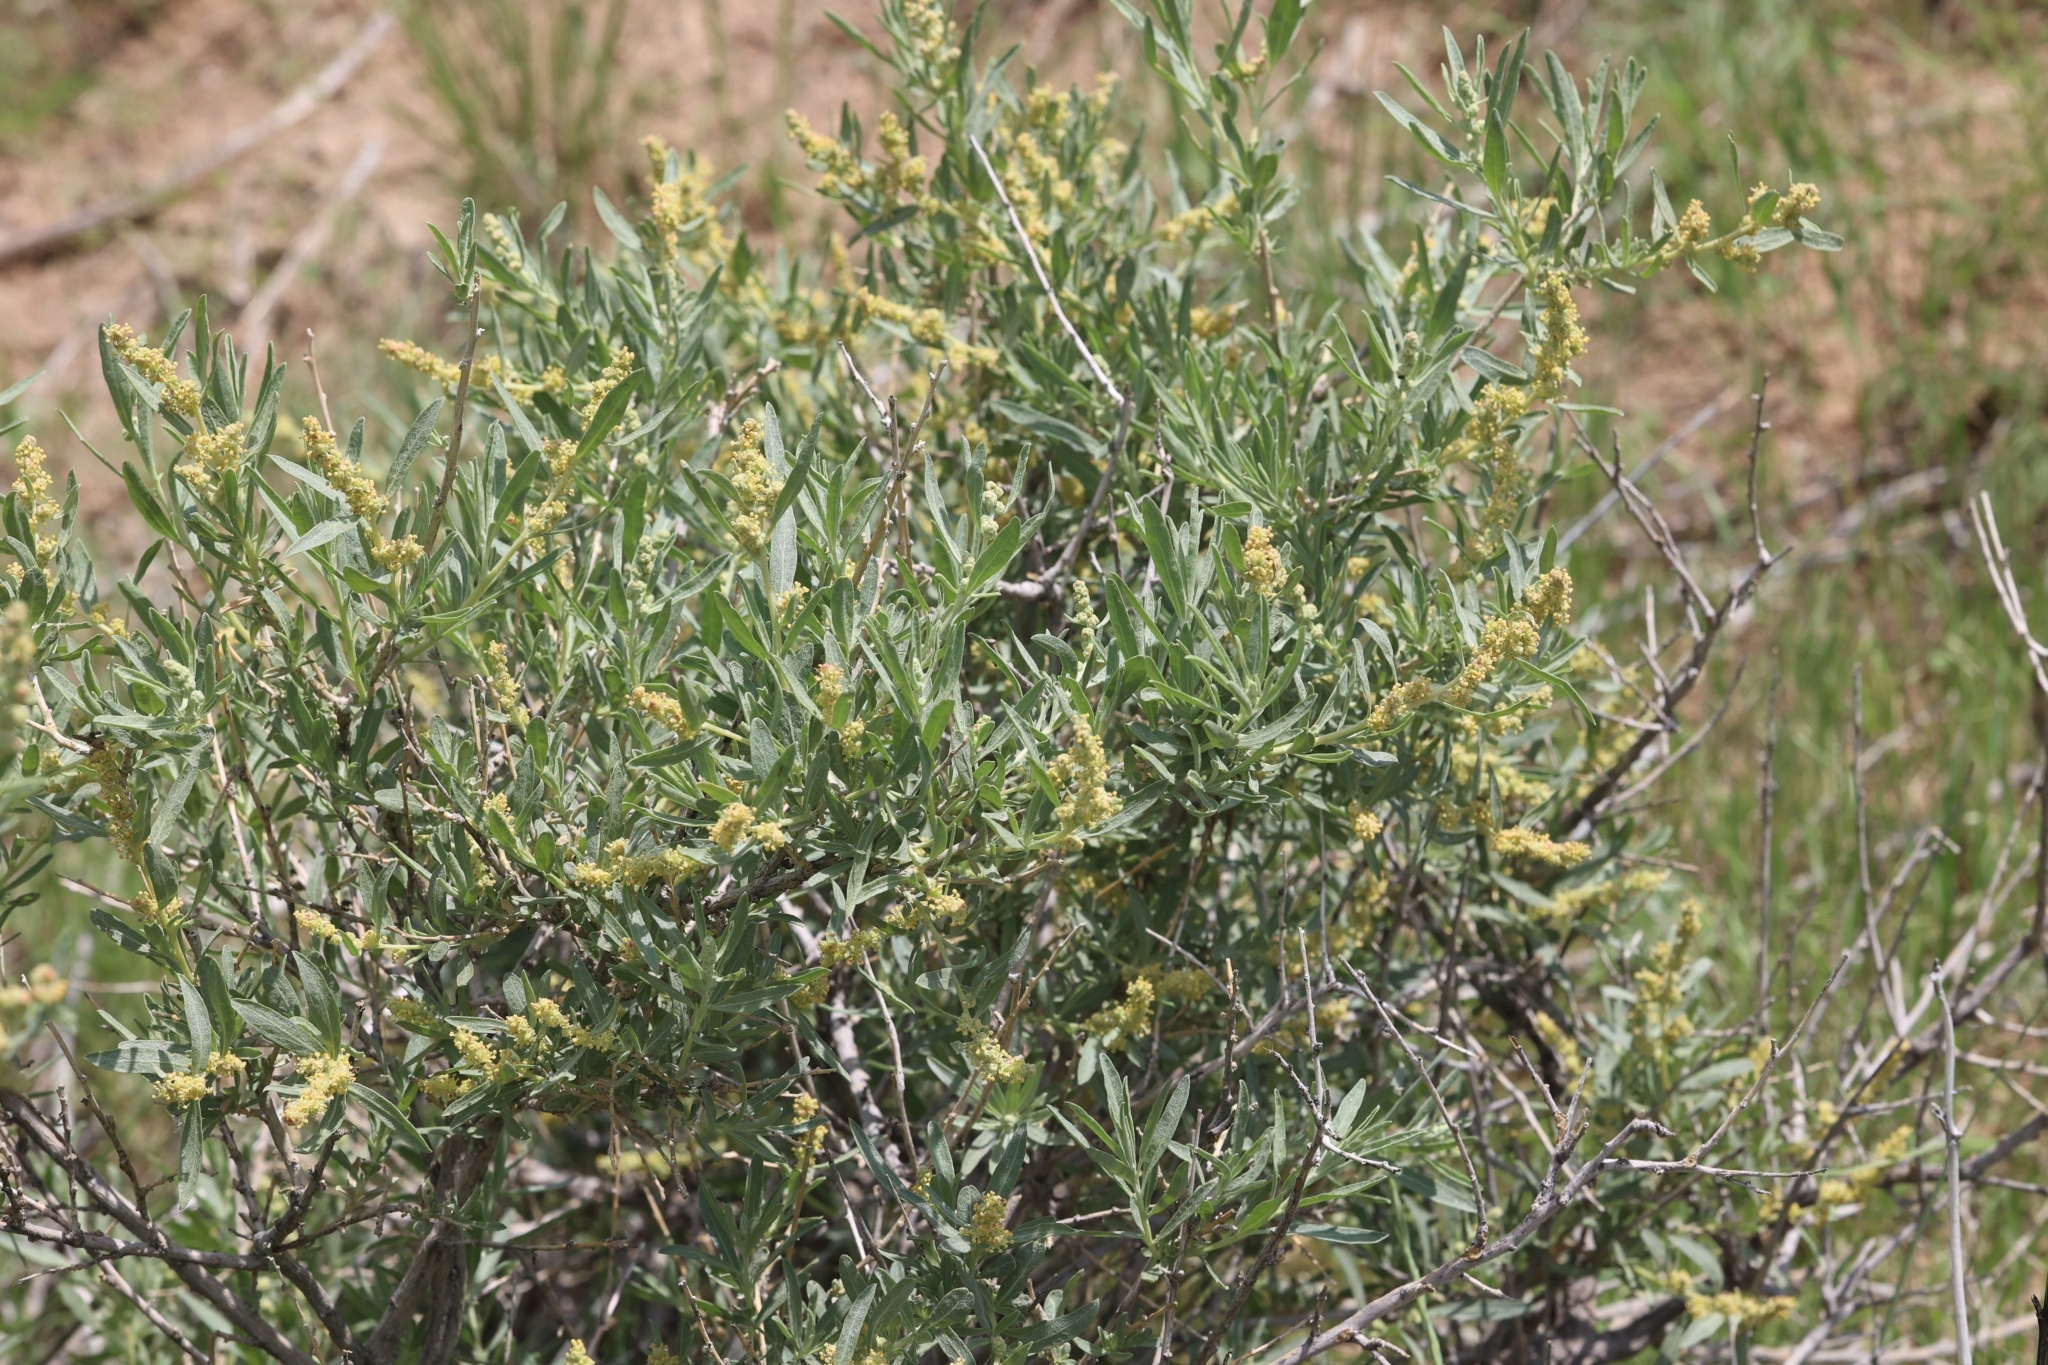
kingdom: Plantae
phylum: Tracheophyta
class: Magnoliopsida
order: Caryophyllales
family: Amaranthaceae
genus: Atriplex
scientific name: Atriplex canescens
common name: Four-wing saltbush
